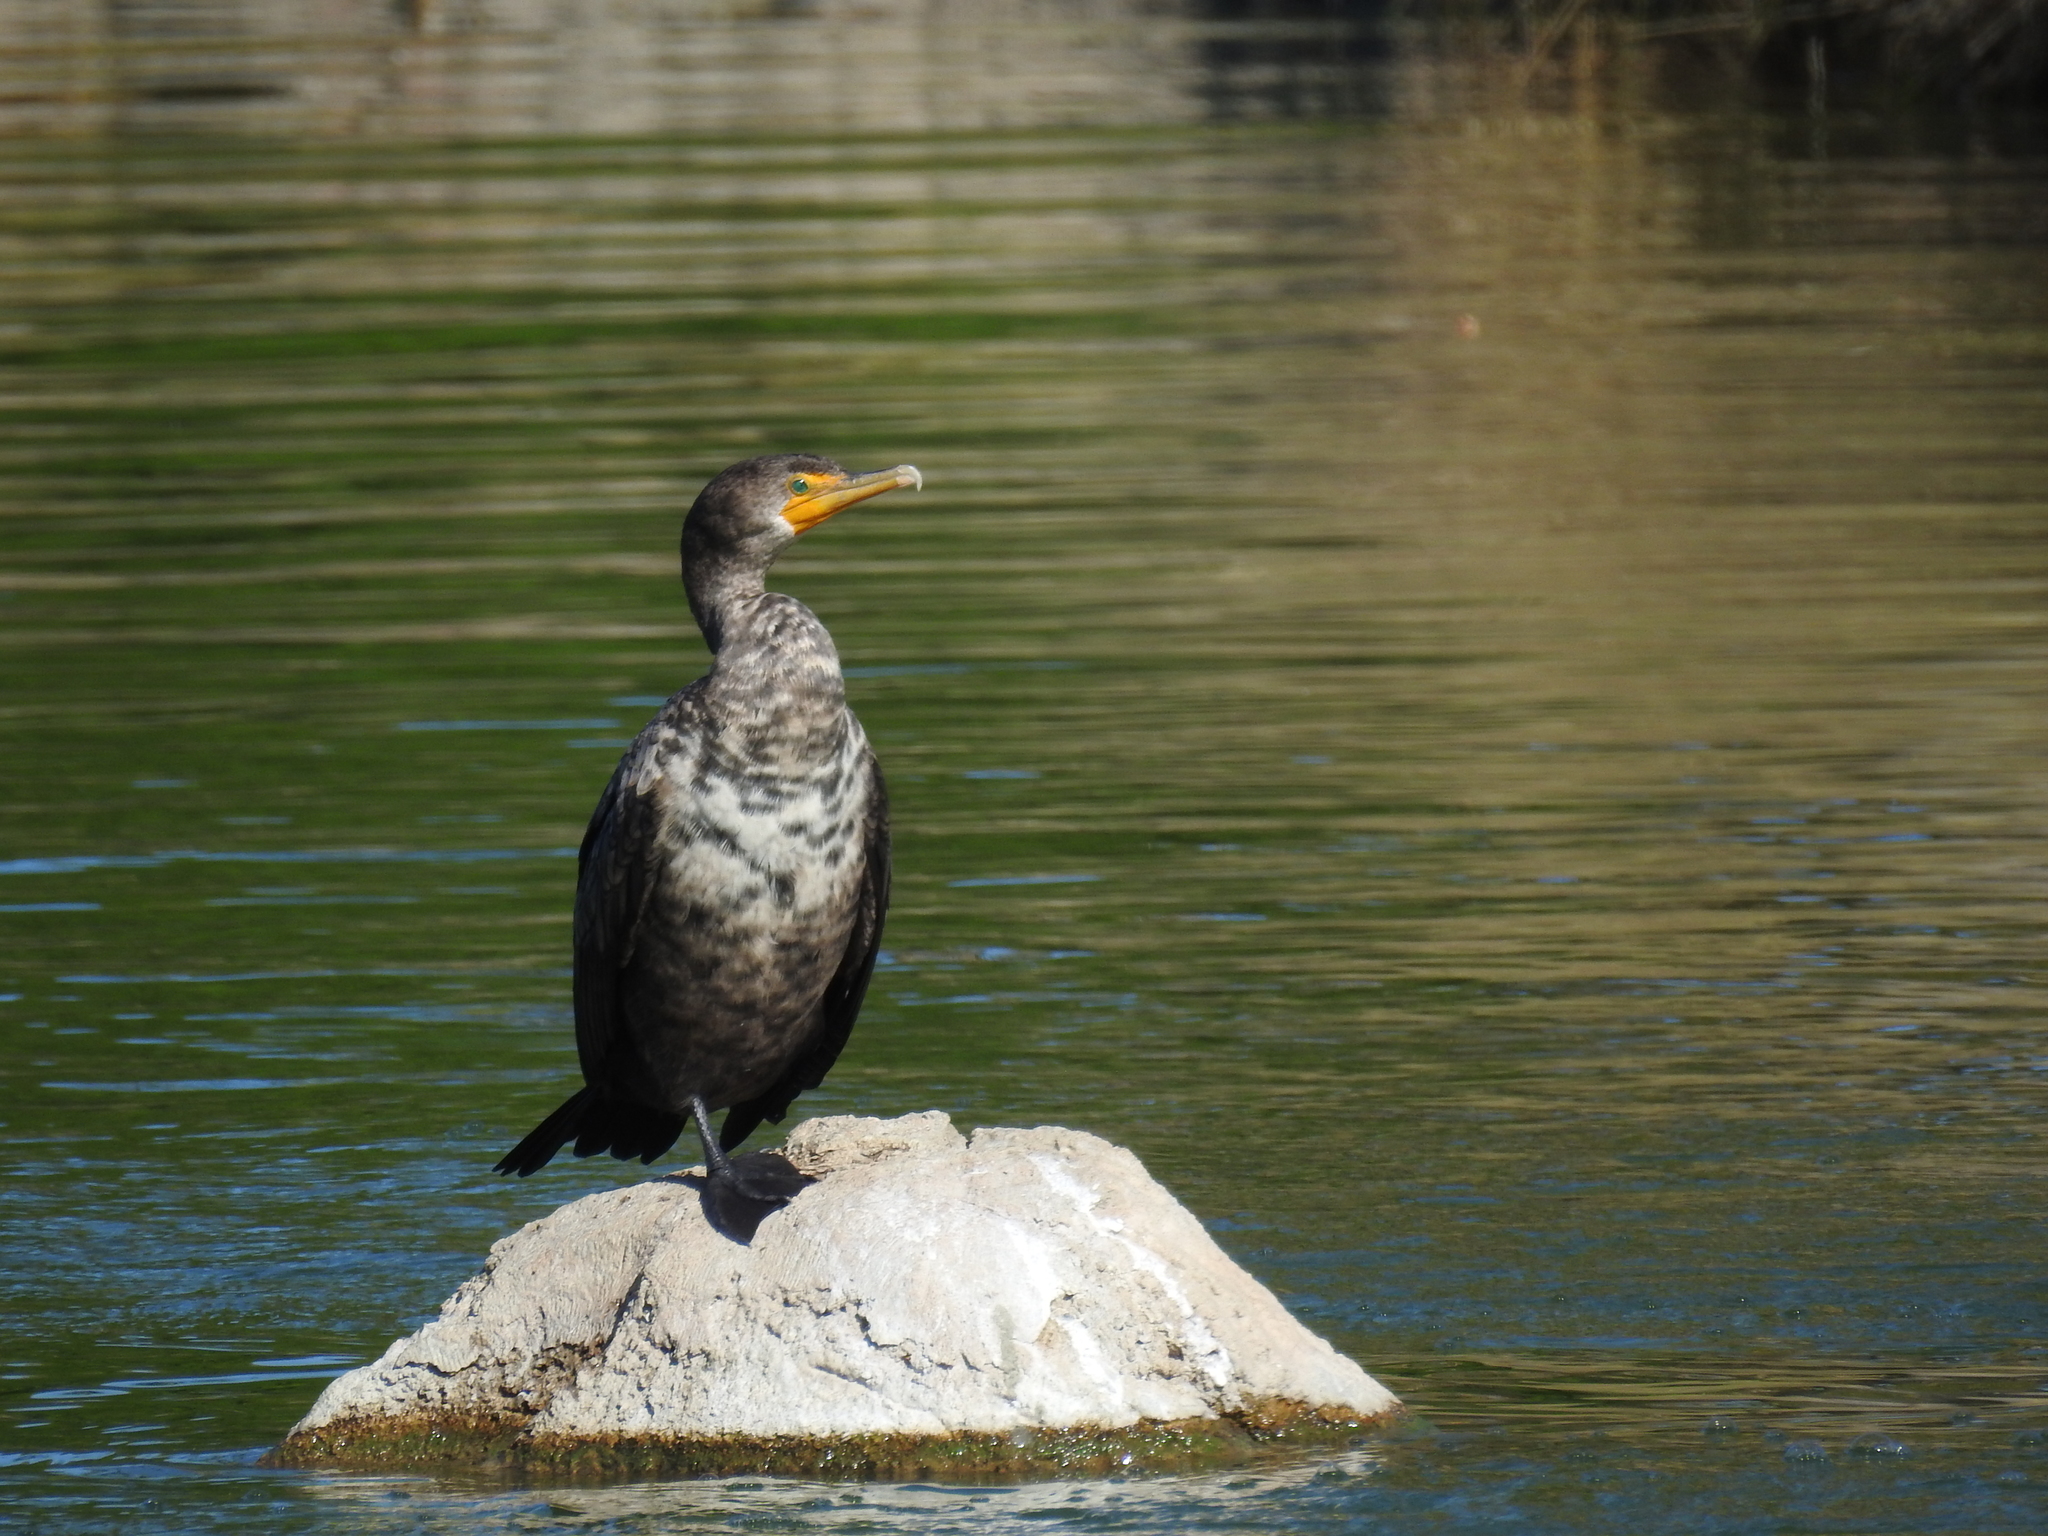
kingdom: Animalia
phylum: Chordata
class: Aves
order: Suliformes
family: Phalacrocoracidae
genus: Phalacrocorax
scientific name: Phalacrocorax auritus
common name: Double-crested cormorant
